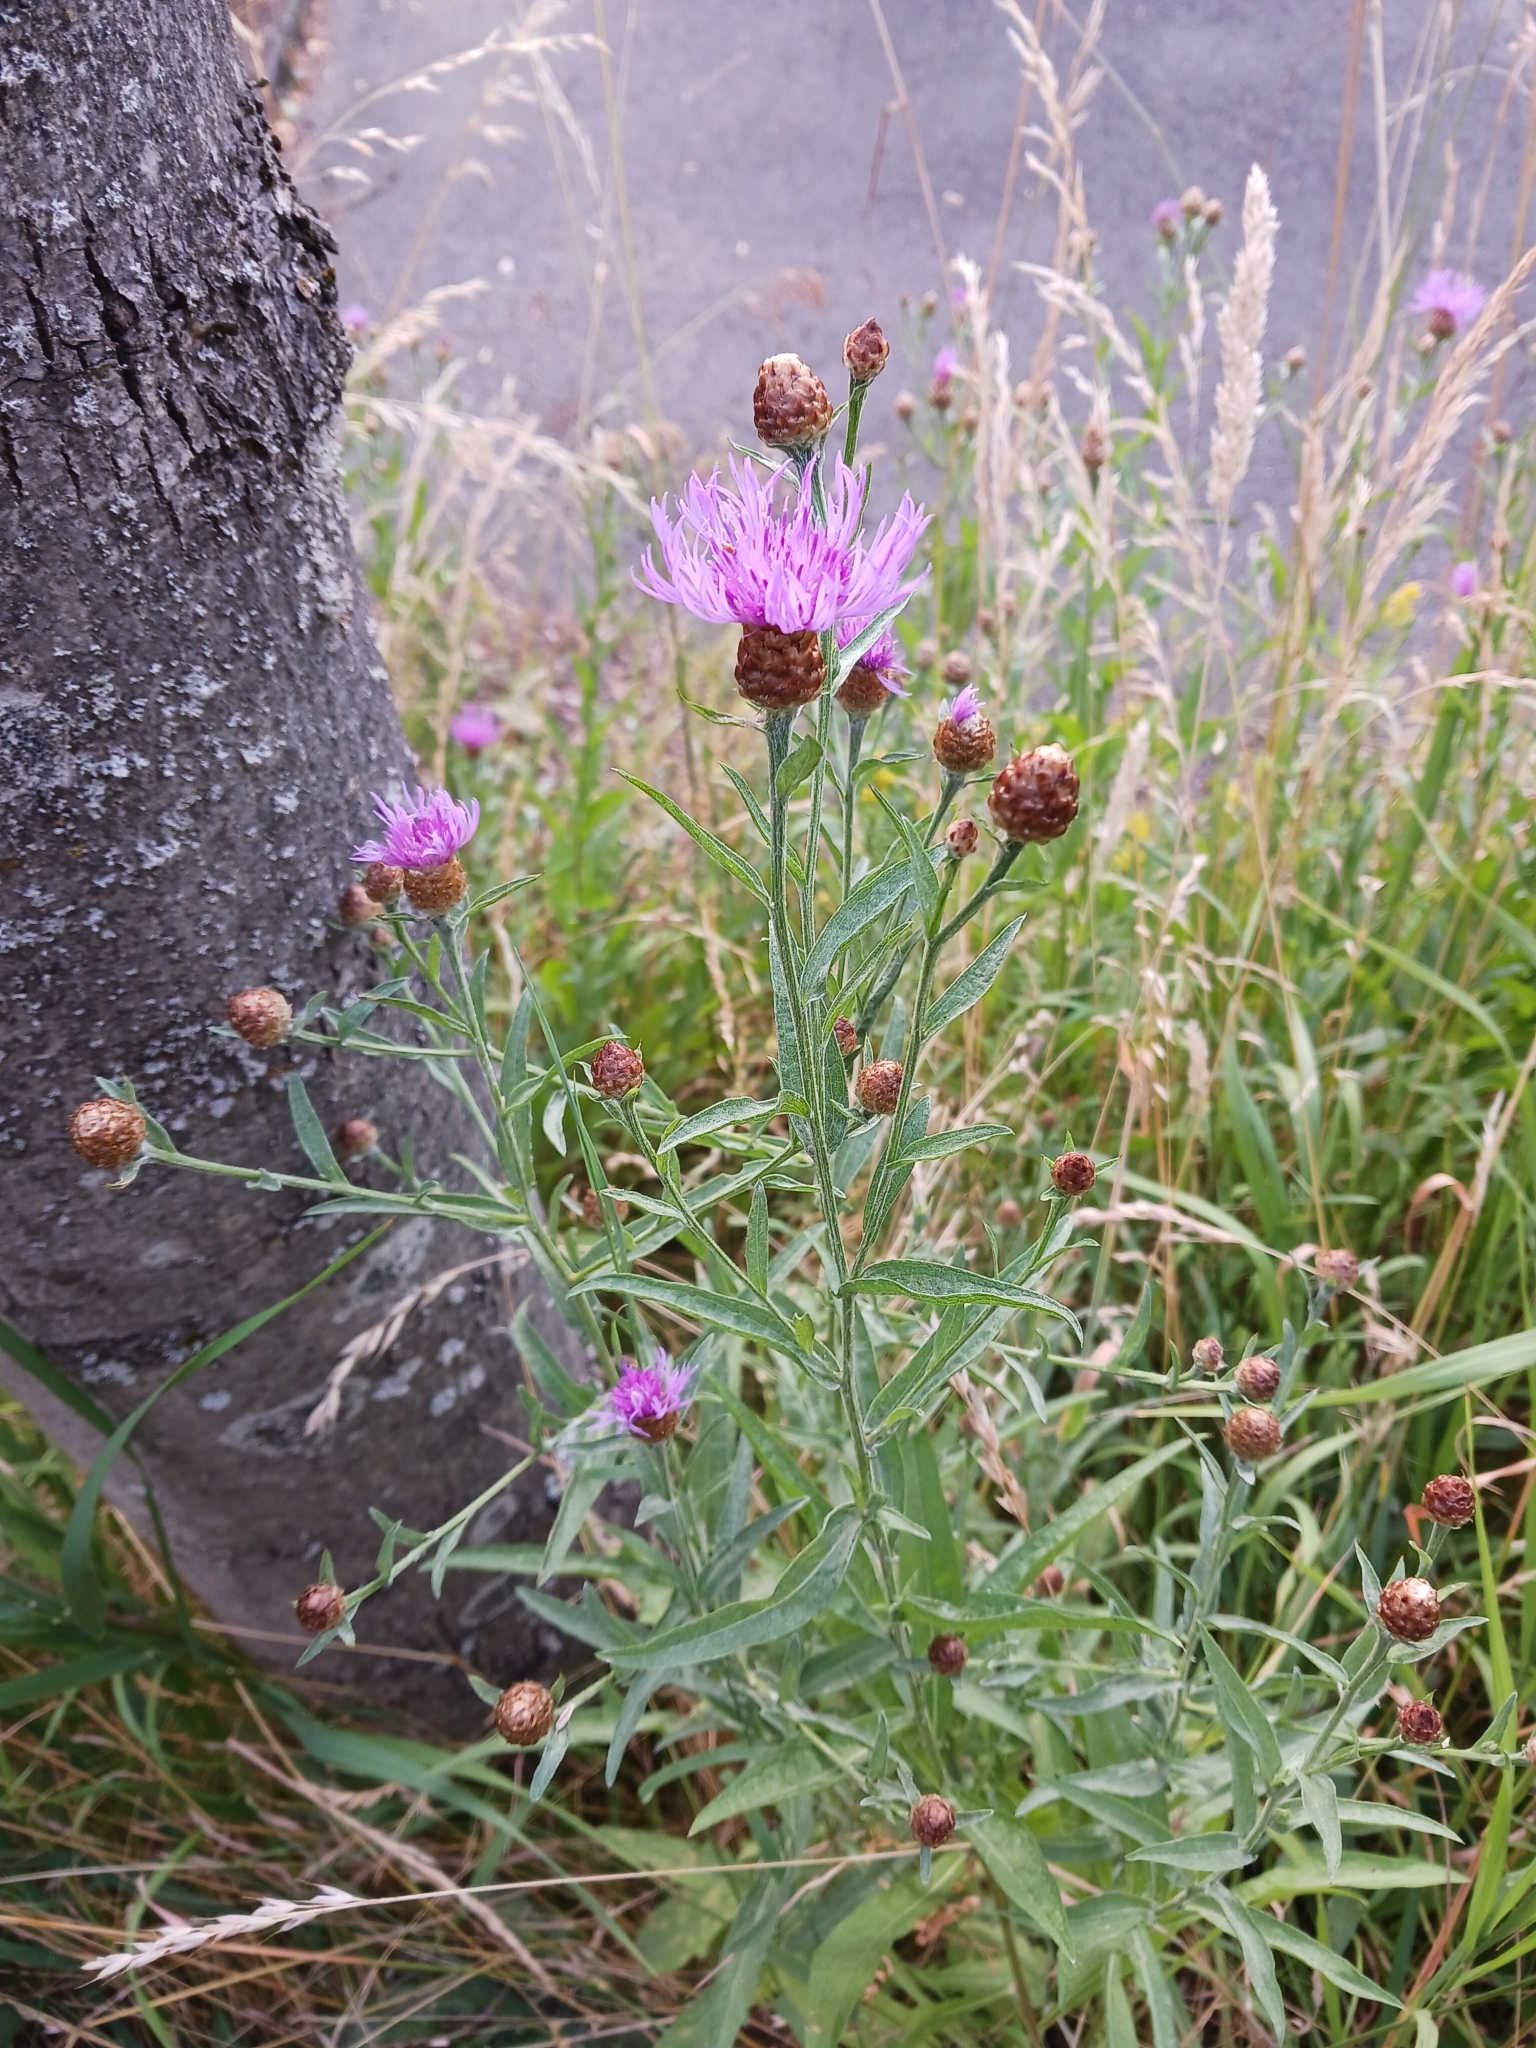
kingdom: Plantae
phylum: Tracheophyta
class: Magnoliopsida
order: Asterales
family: Asteraceae
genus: Centaurea
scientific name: Centaurea jacea
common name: Brown knapweed
